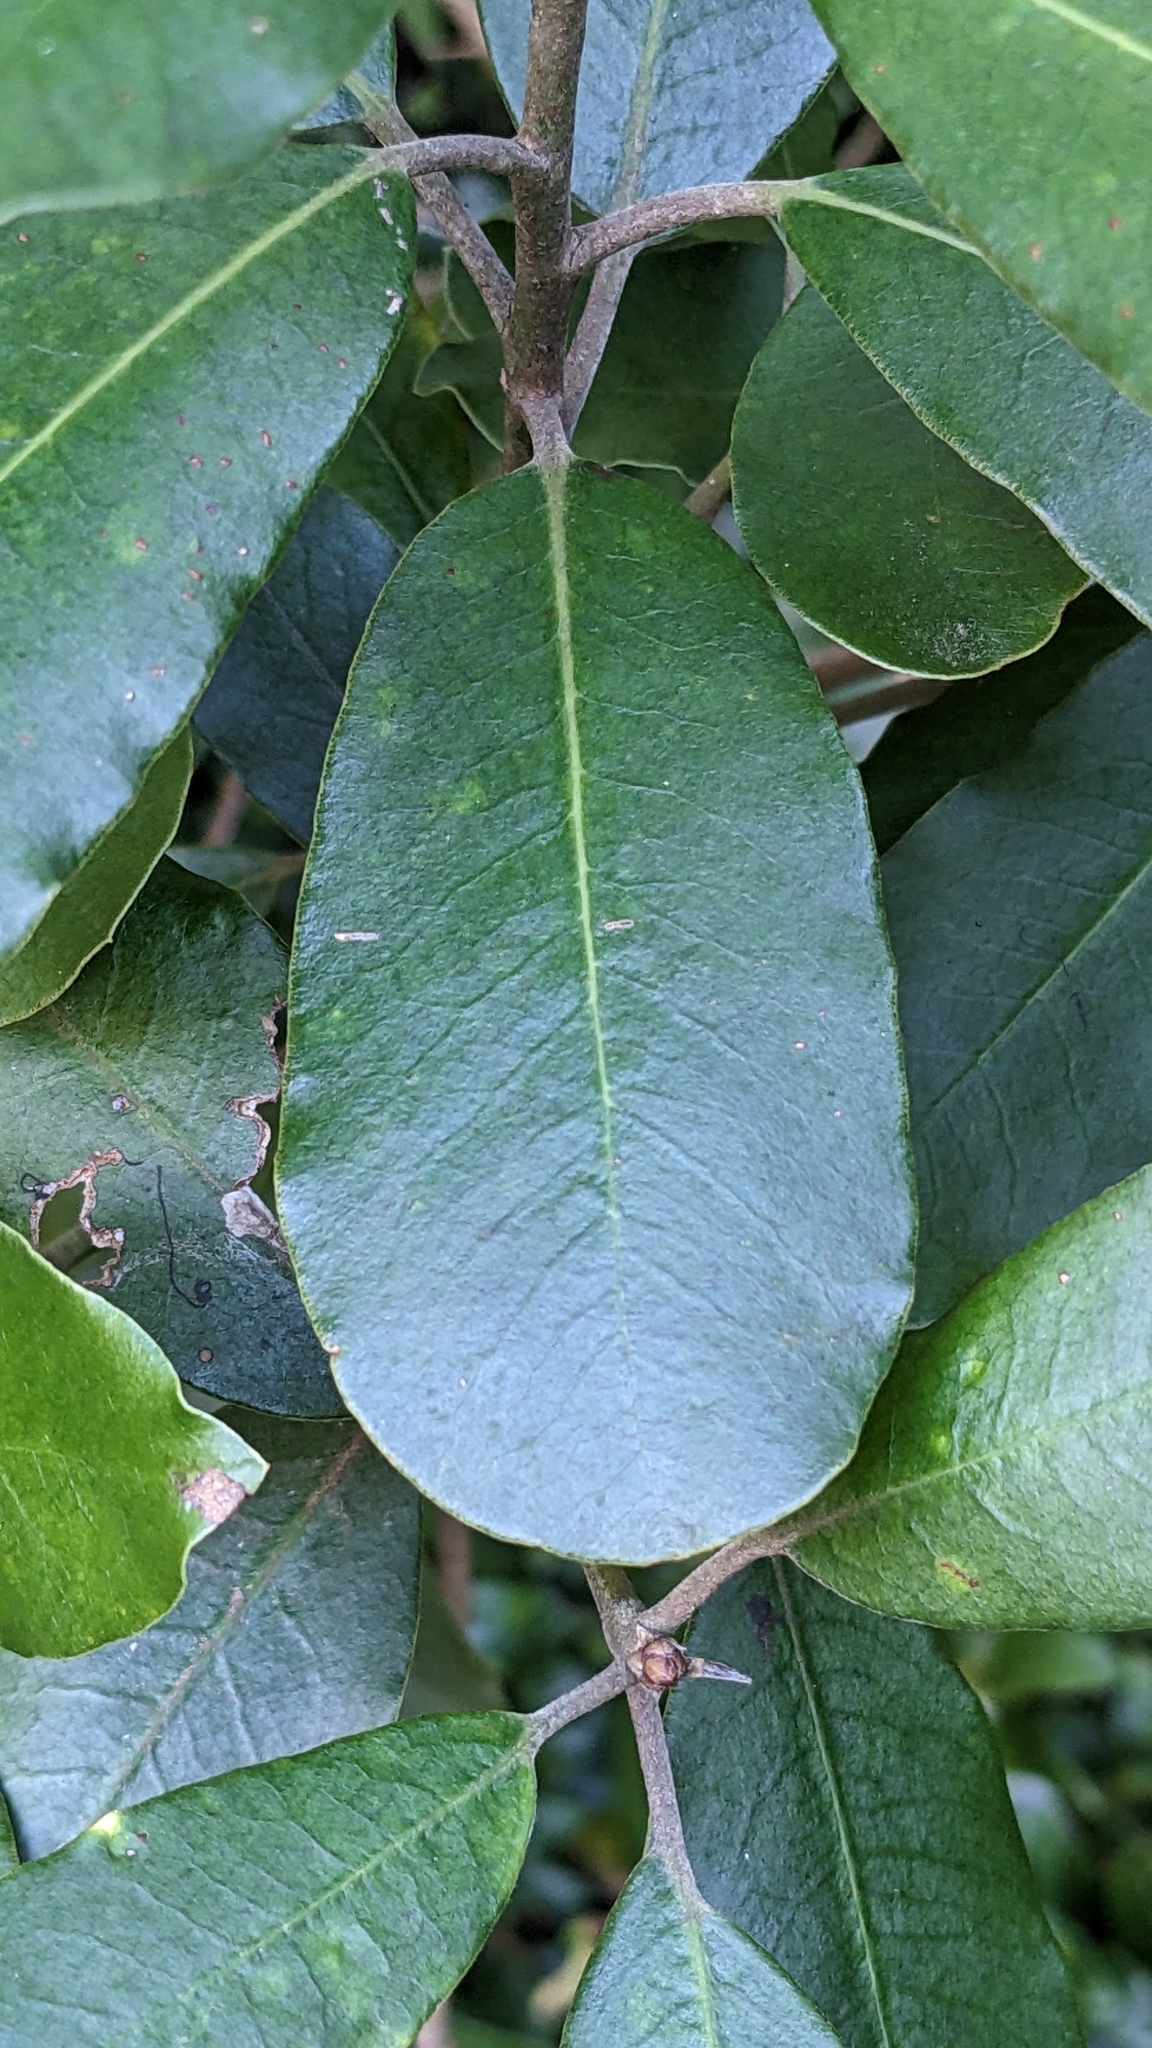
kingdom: Plantae
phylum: Tracheophyta
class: Magnoliopsida
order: Apiales
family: Pittosporaceae
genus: Pittosporum
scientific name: Pittosporum ralphii
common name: Ralph's desertwillow
